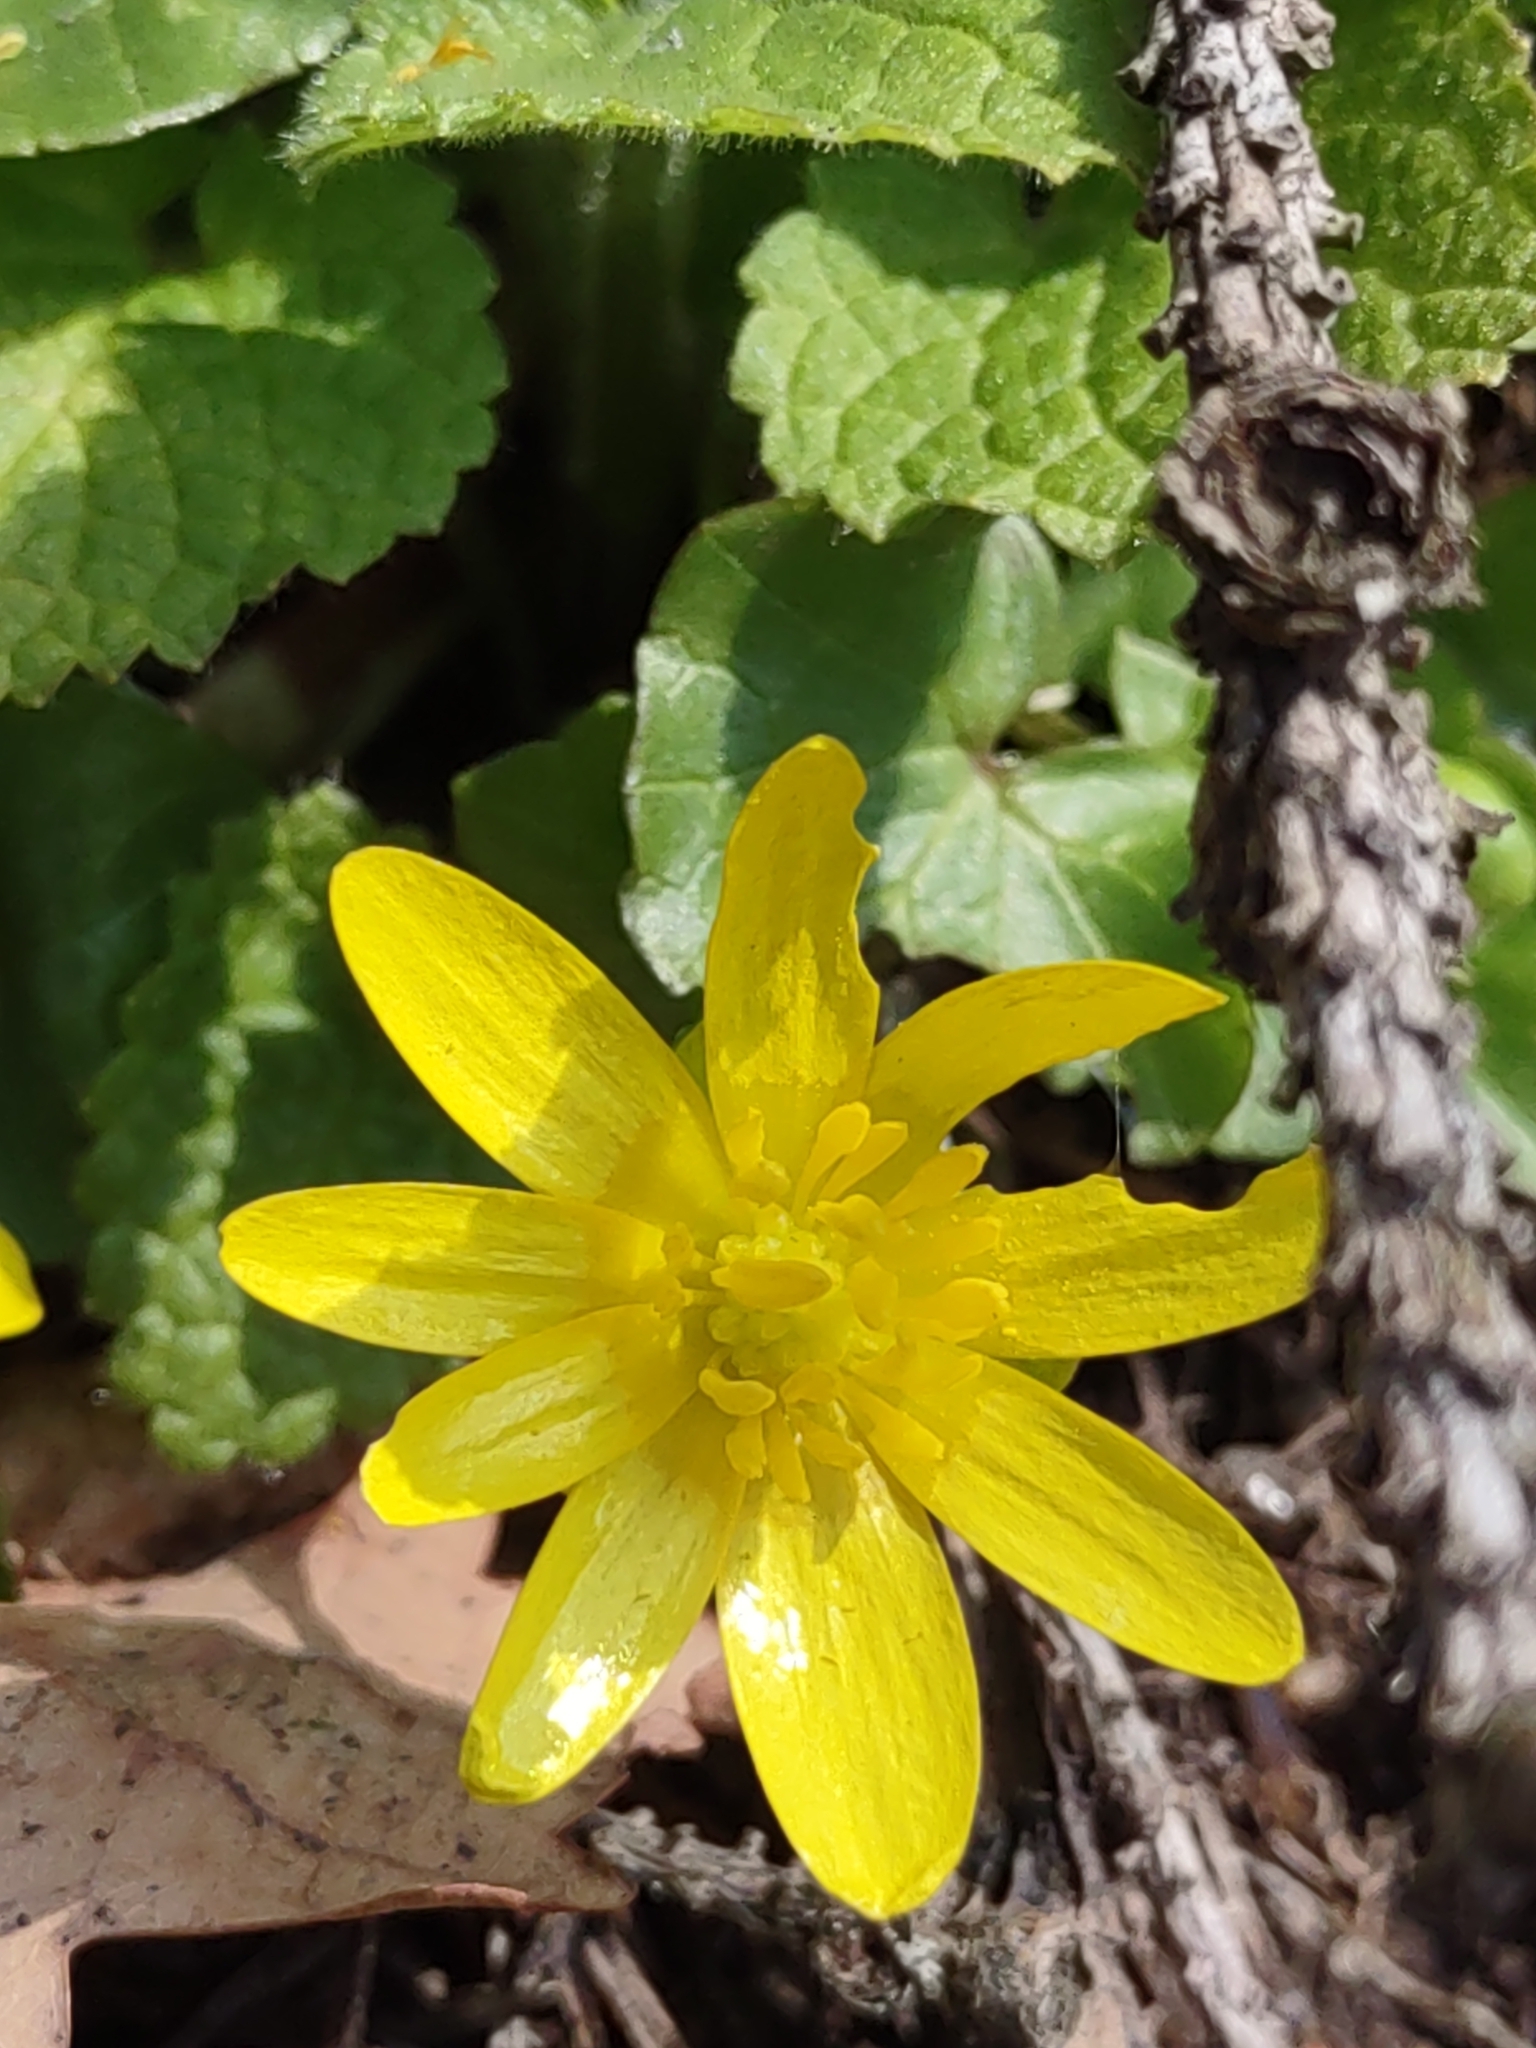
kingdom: Plantae
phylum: Tracheophyta
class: Magnoliopsida
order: Ranunculales
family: Ranunculaceae
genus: Ficaria
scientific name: Ficaria verna
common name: Lesser celandine
